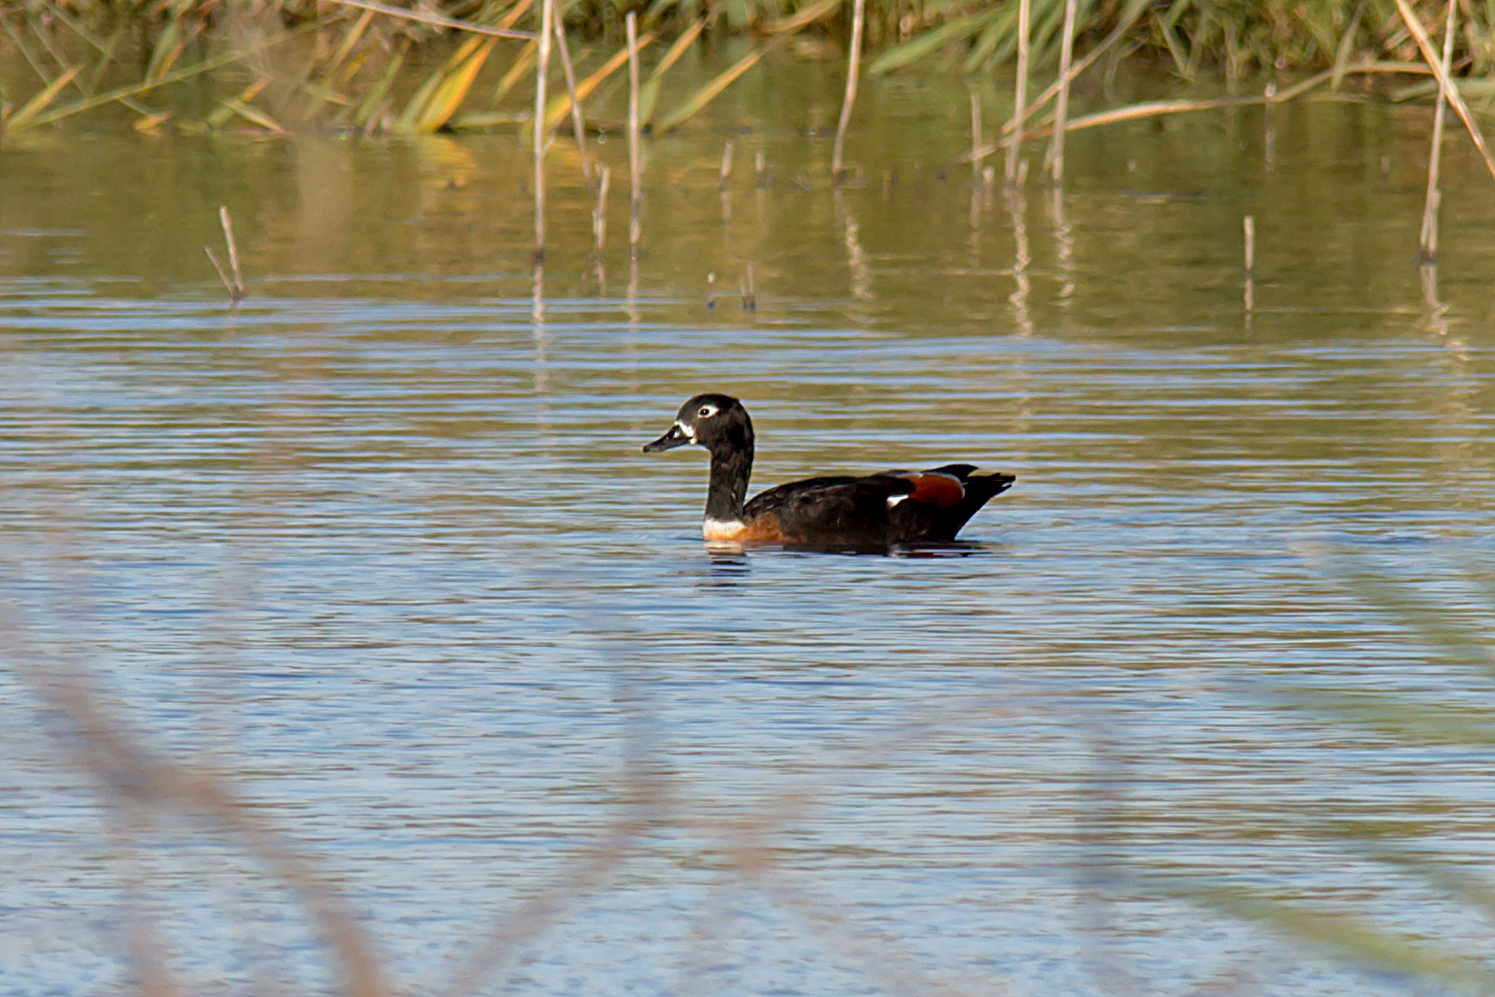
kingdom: Animalia
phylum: Chordata
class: Aves
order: Anseriformes
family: Anatidae
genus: Tadorna
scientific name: Tadorna tadornoides
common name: Australian shelduck
